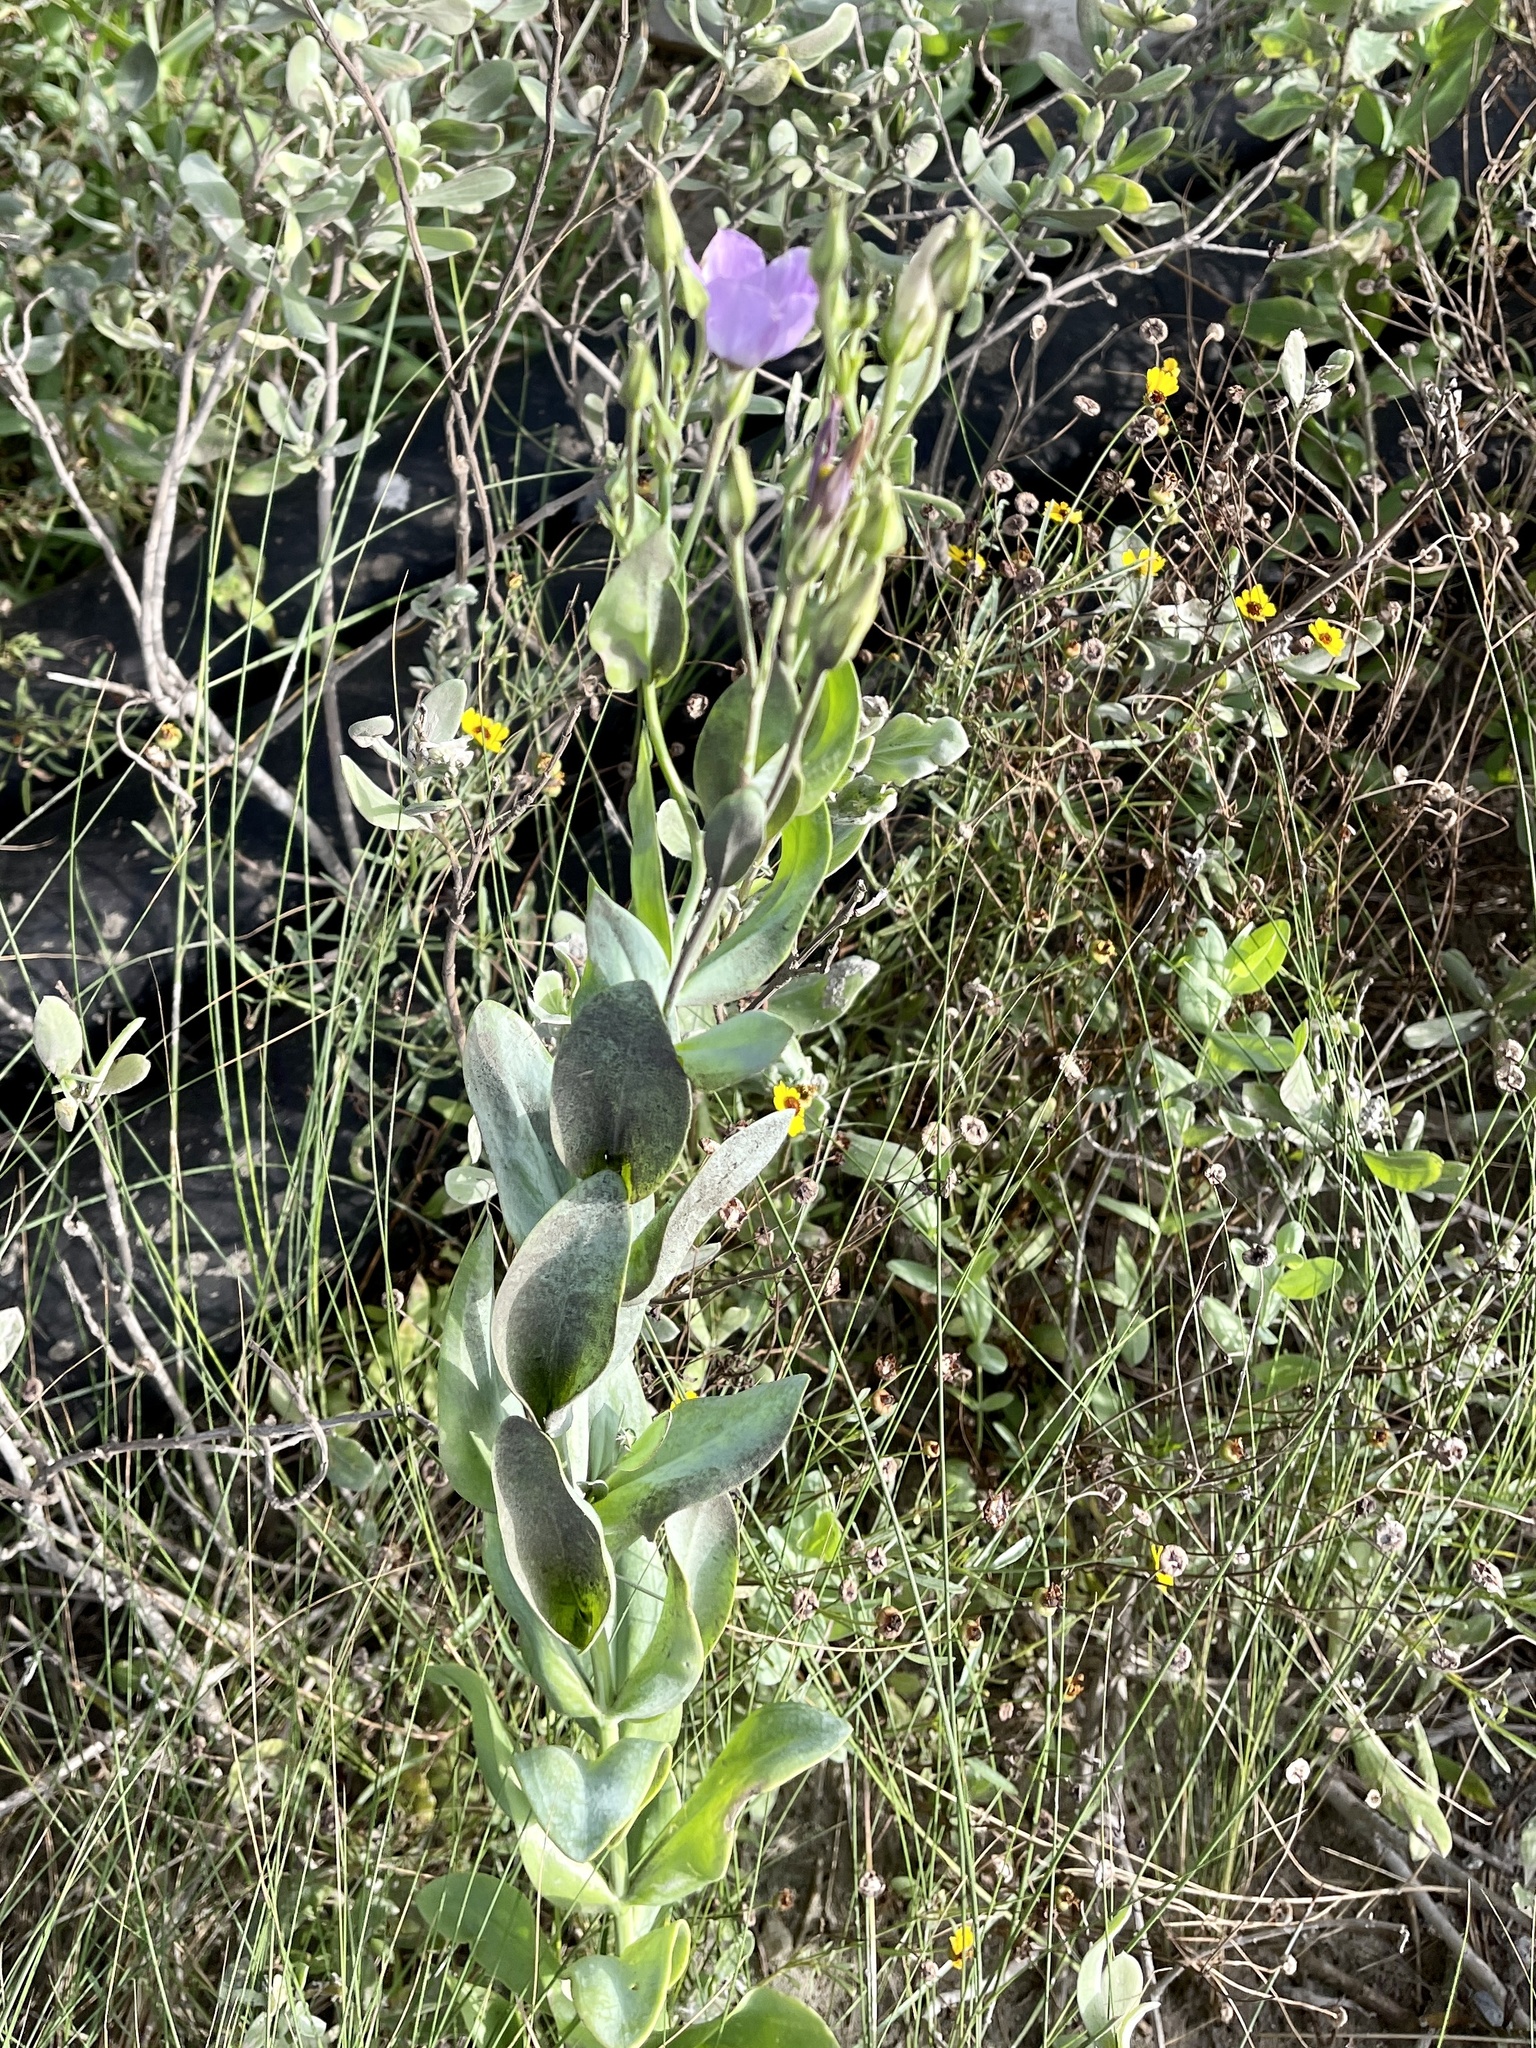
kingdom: Plantae
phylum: Tracheophyta
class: Magnoliopsida
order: Gentianales
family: Gentianaceae
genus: Eustoma
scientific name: Eustoma exaltatum
